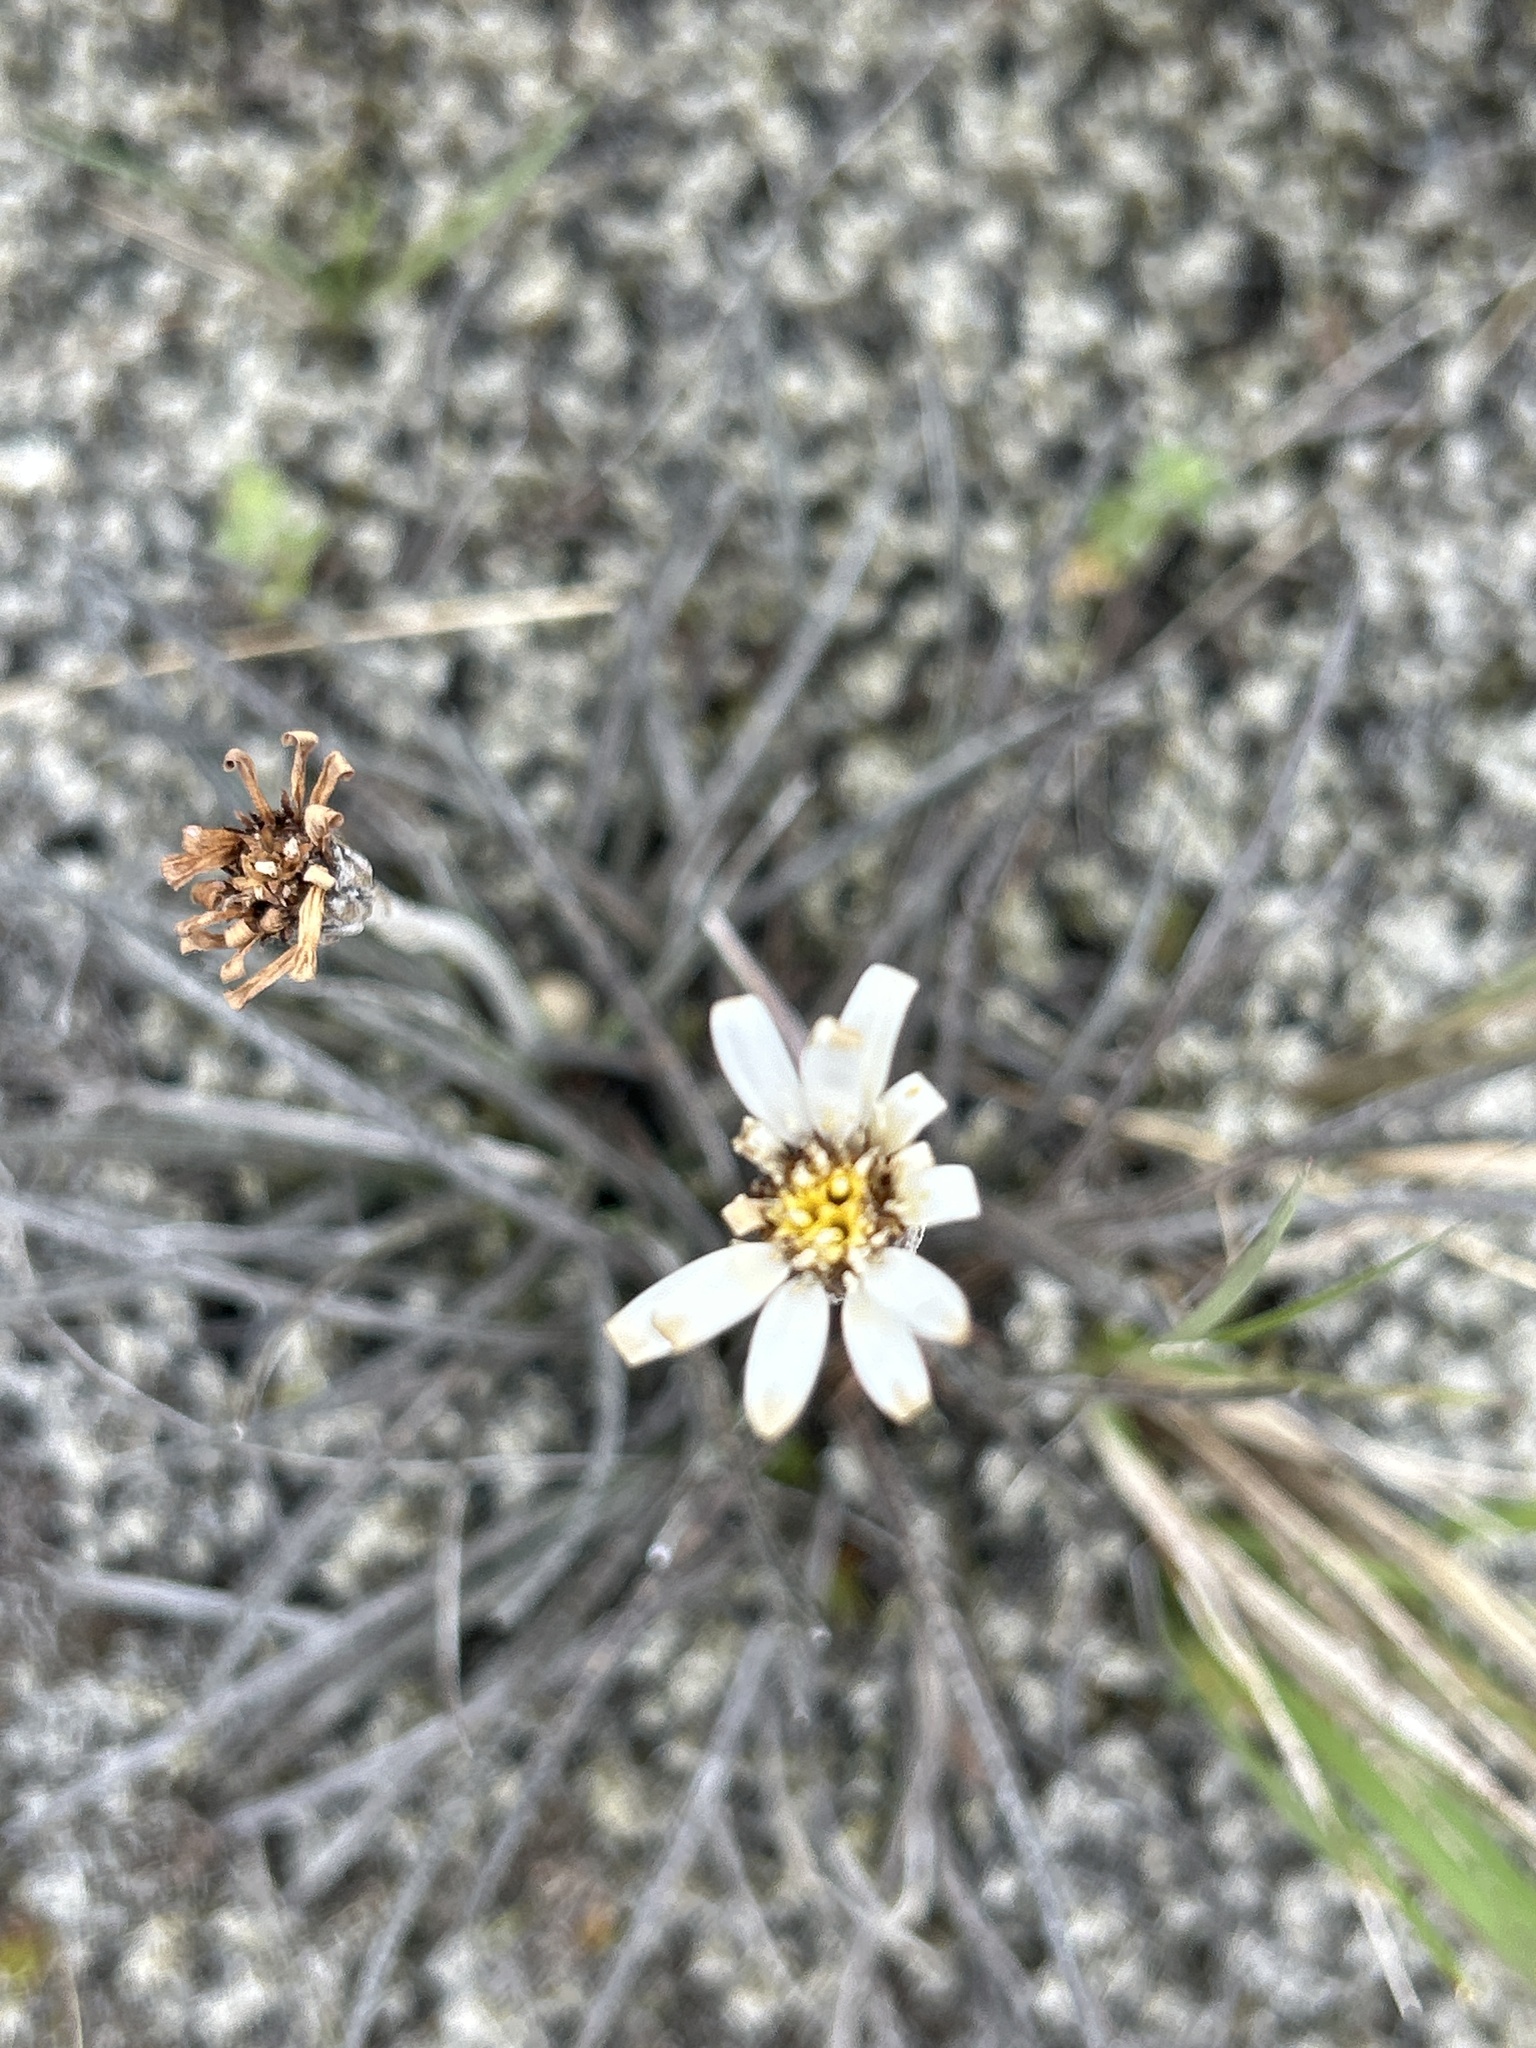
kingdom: Plantae
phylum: Tracheophyta
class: Magnoliopsida
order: Asterales
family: Asteraceae
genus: Celmisia
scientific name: Celmisia gracilenta
